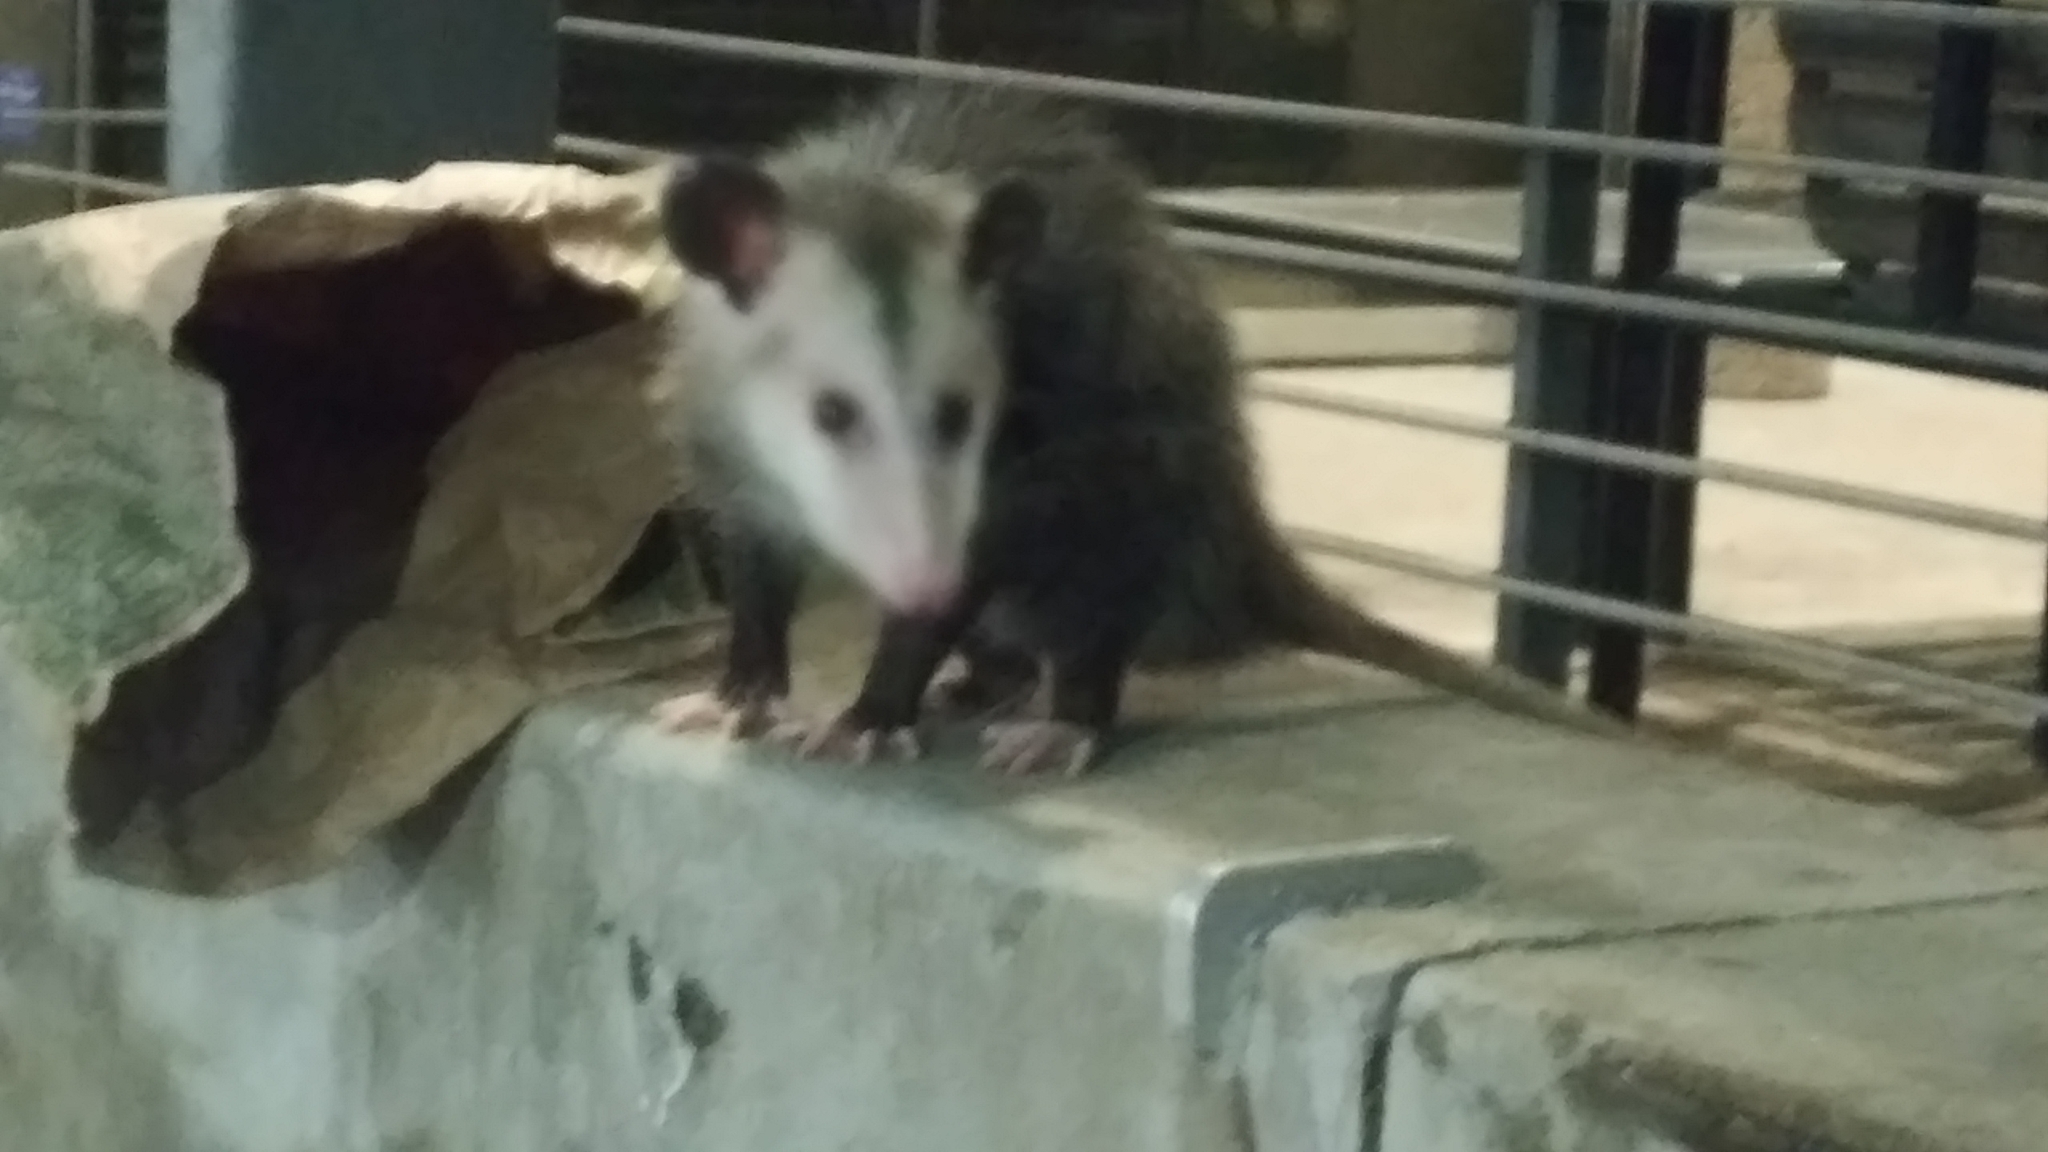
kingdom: Animalia
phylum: Chordata
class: Mammalia
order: Didelphimorphia
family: Didelphidae
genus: Didelphis
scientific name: Didelphis virginiana
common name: Virginia opossum
